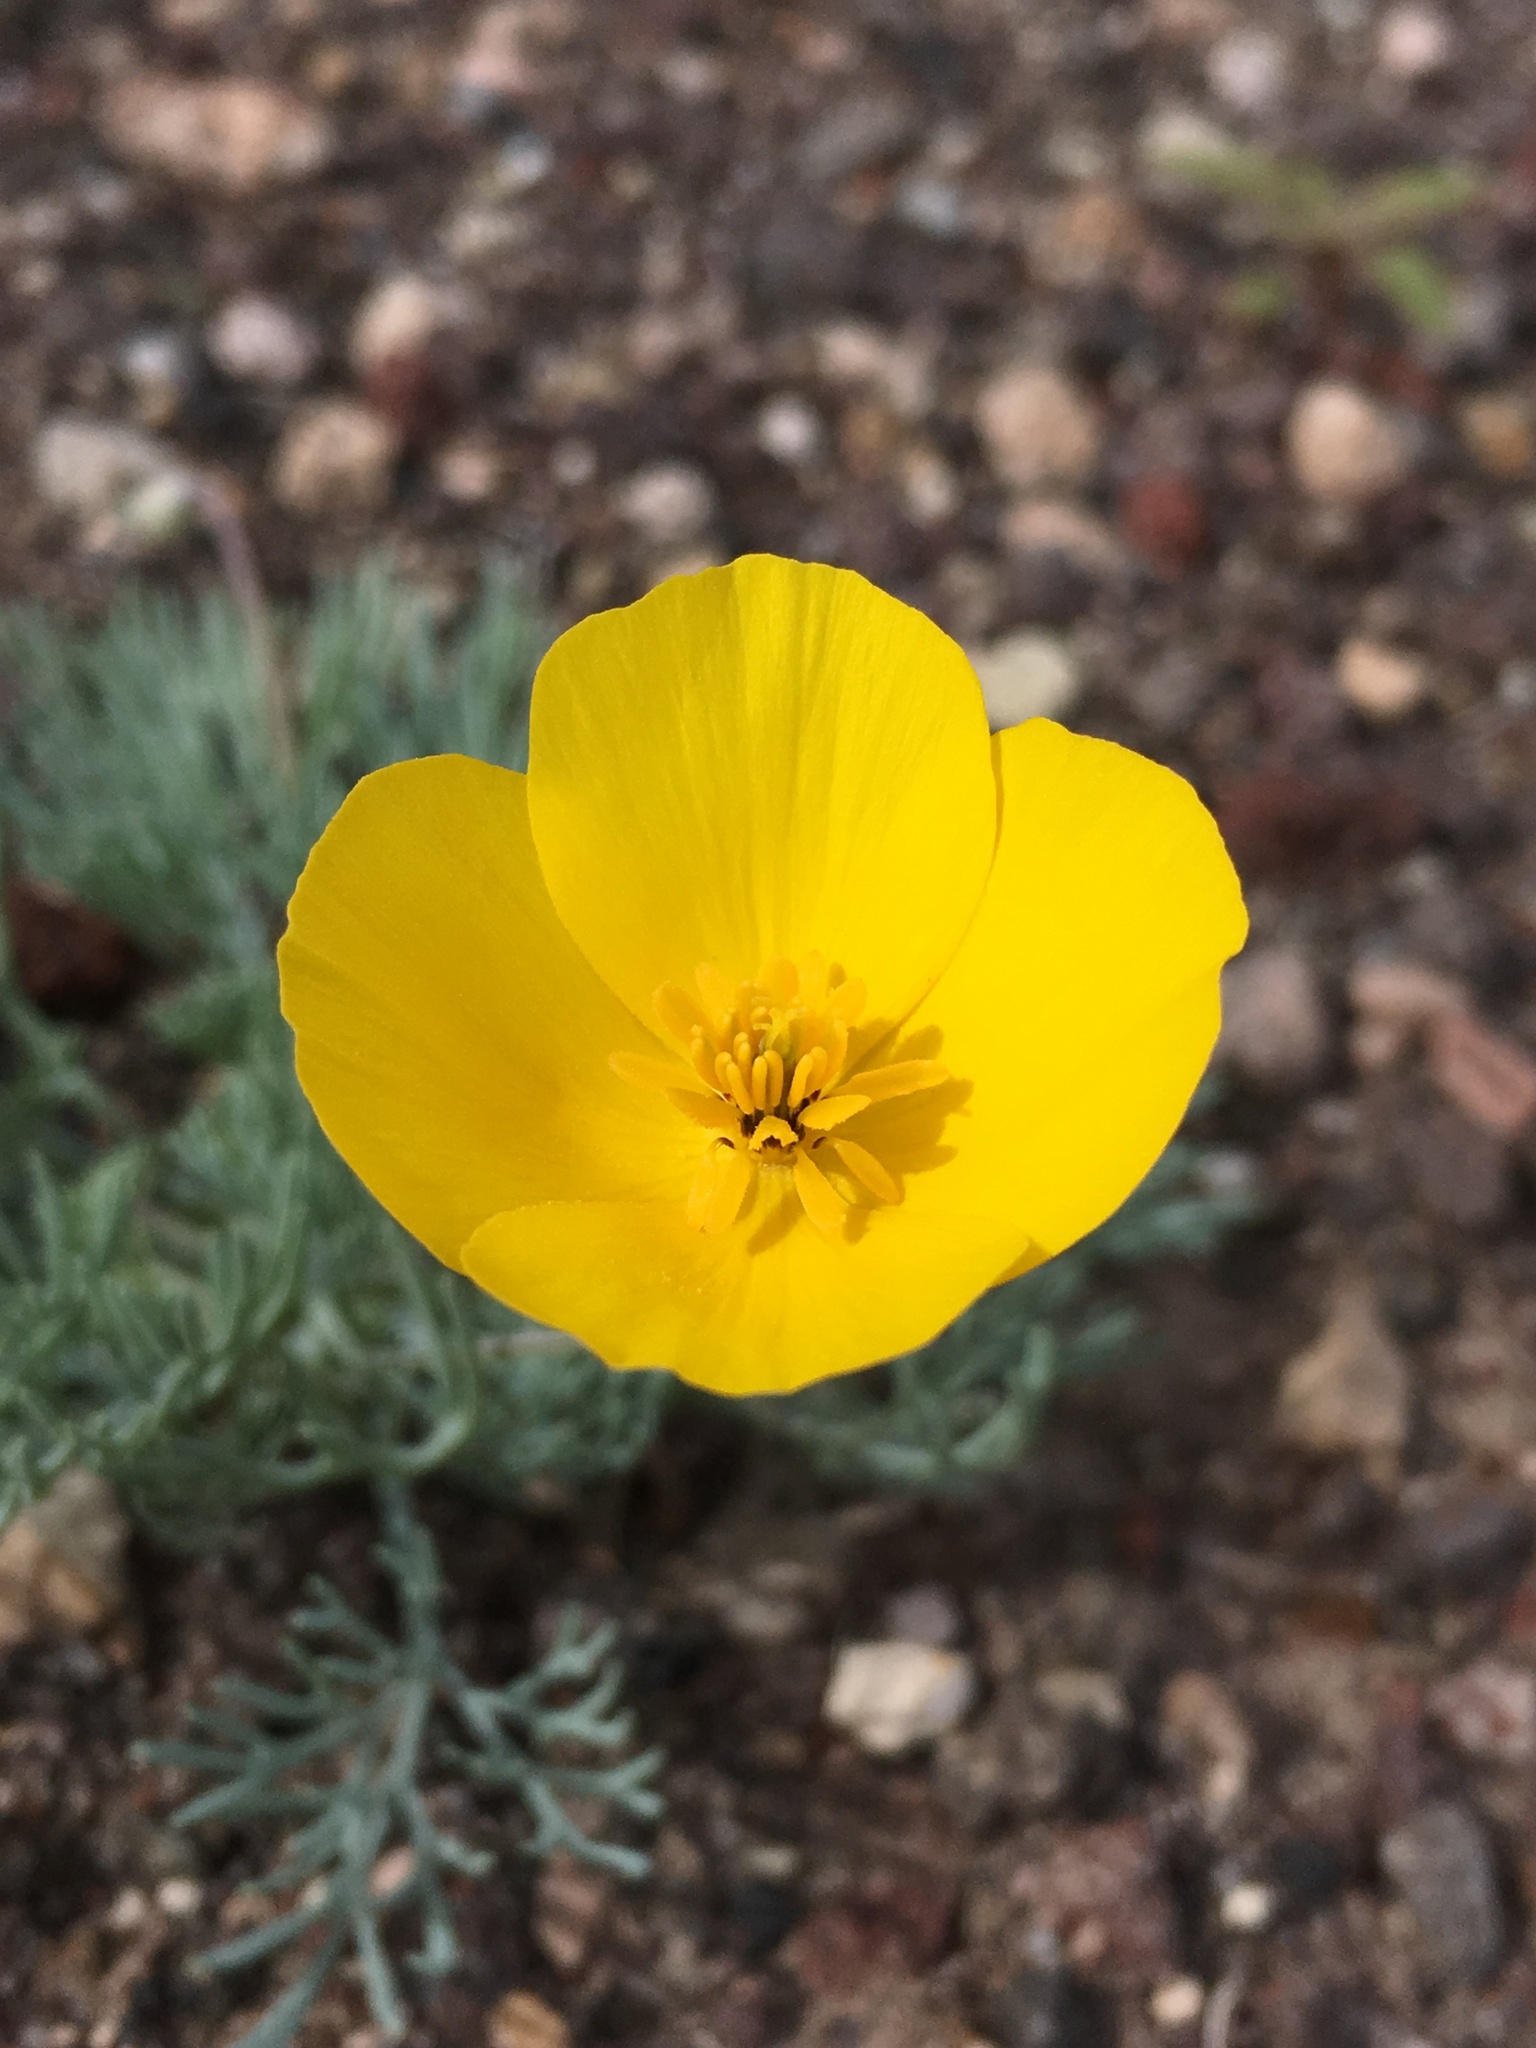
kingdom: Plantae
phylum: Tracheophyta
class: Magnoliopsida
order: Ranunculales
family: Papaveraceae
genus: Eschscholzia
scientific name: Eschscholzia glyptosperma
